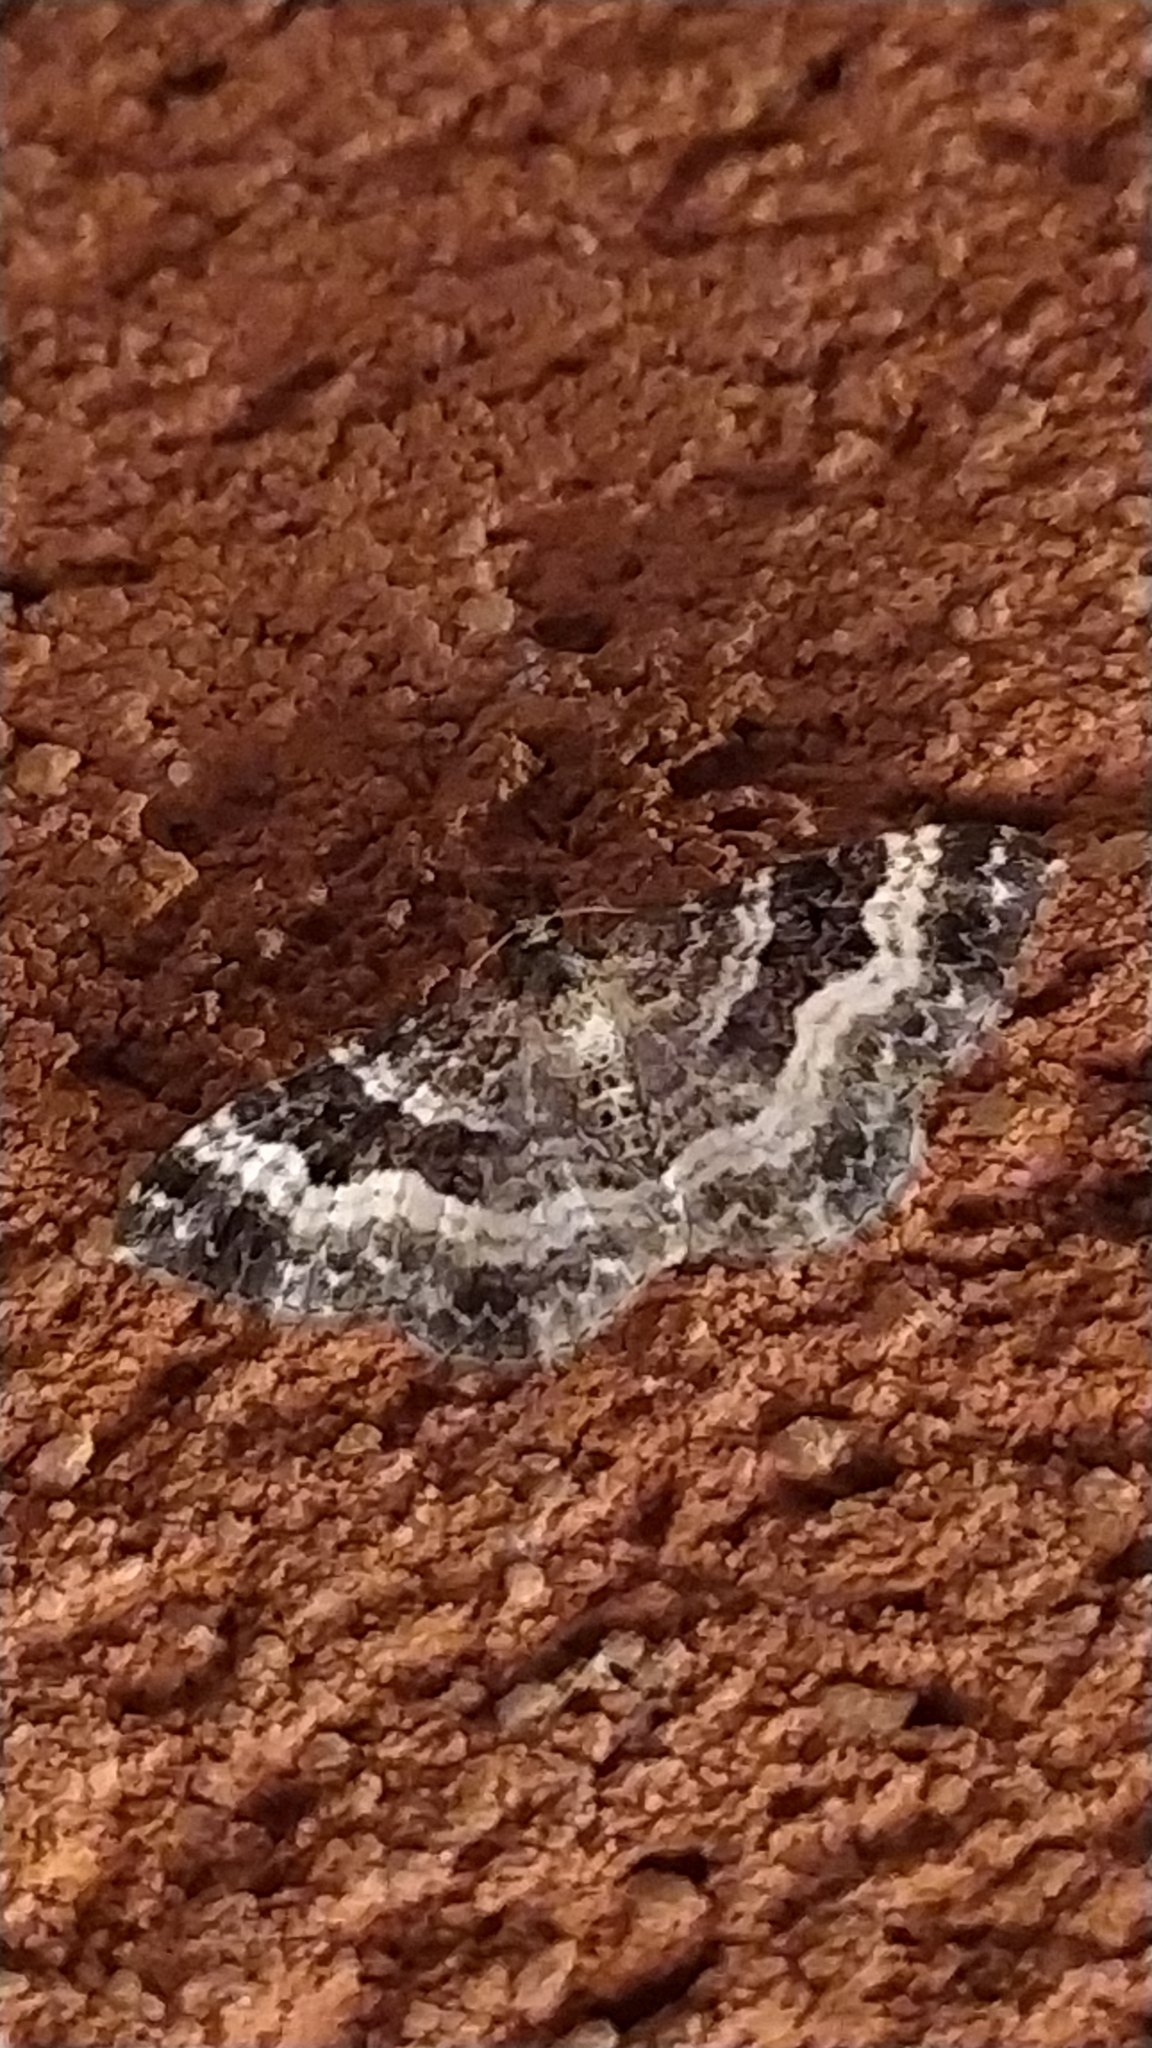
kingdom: Animalia
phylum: Arthropoda
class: Insecta
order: Lepidoptera
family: Geometridae
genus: Epirrhoe
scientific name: Epirrhoe alternata
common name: Common carpet
